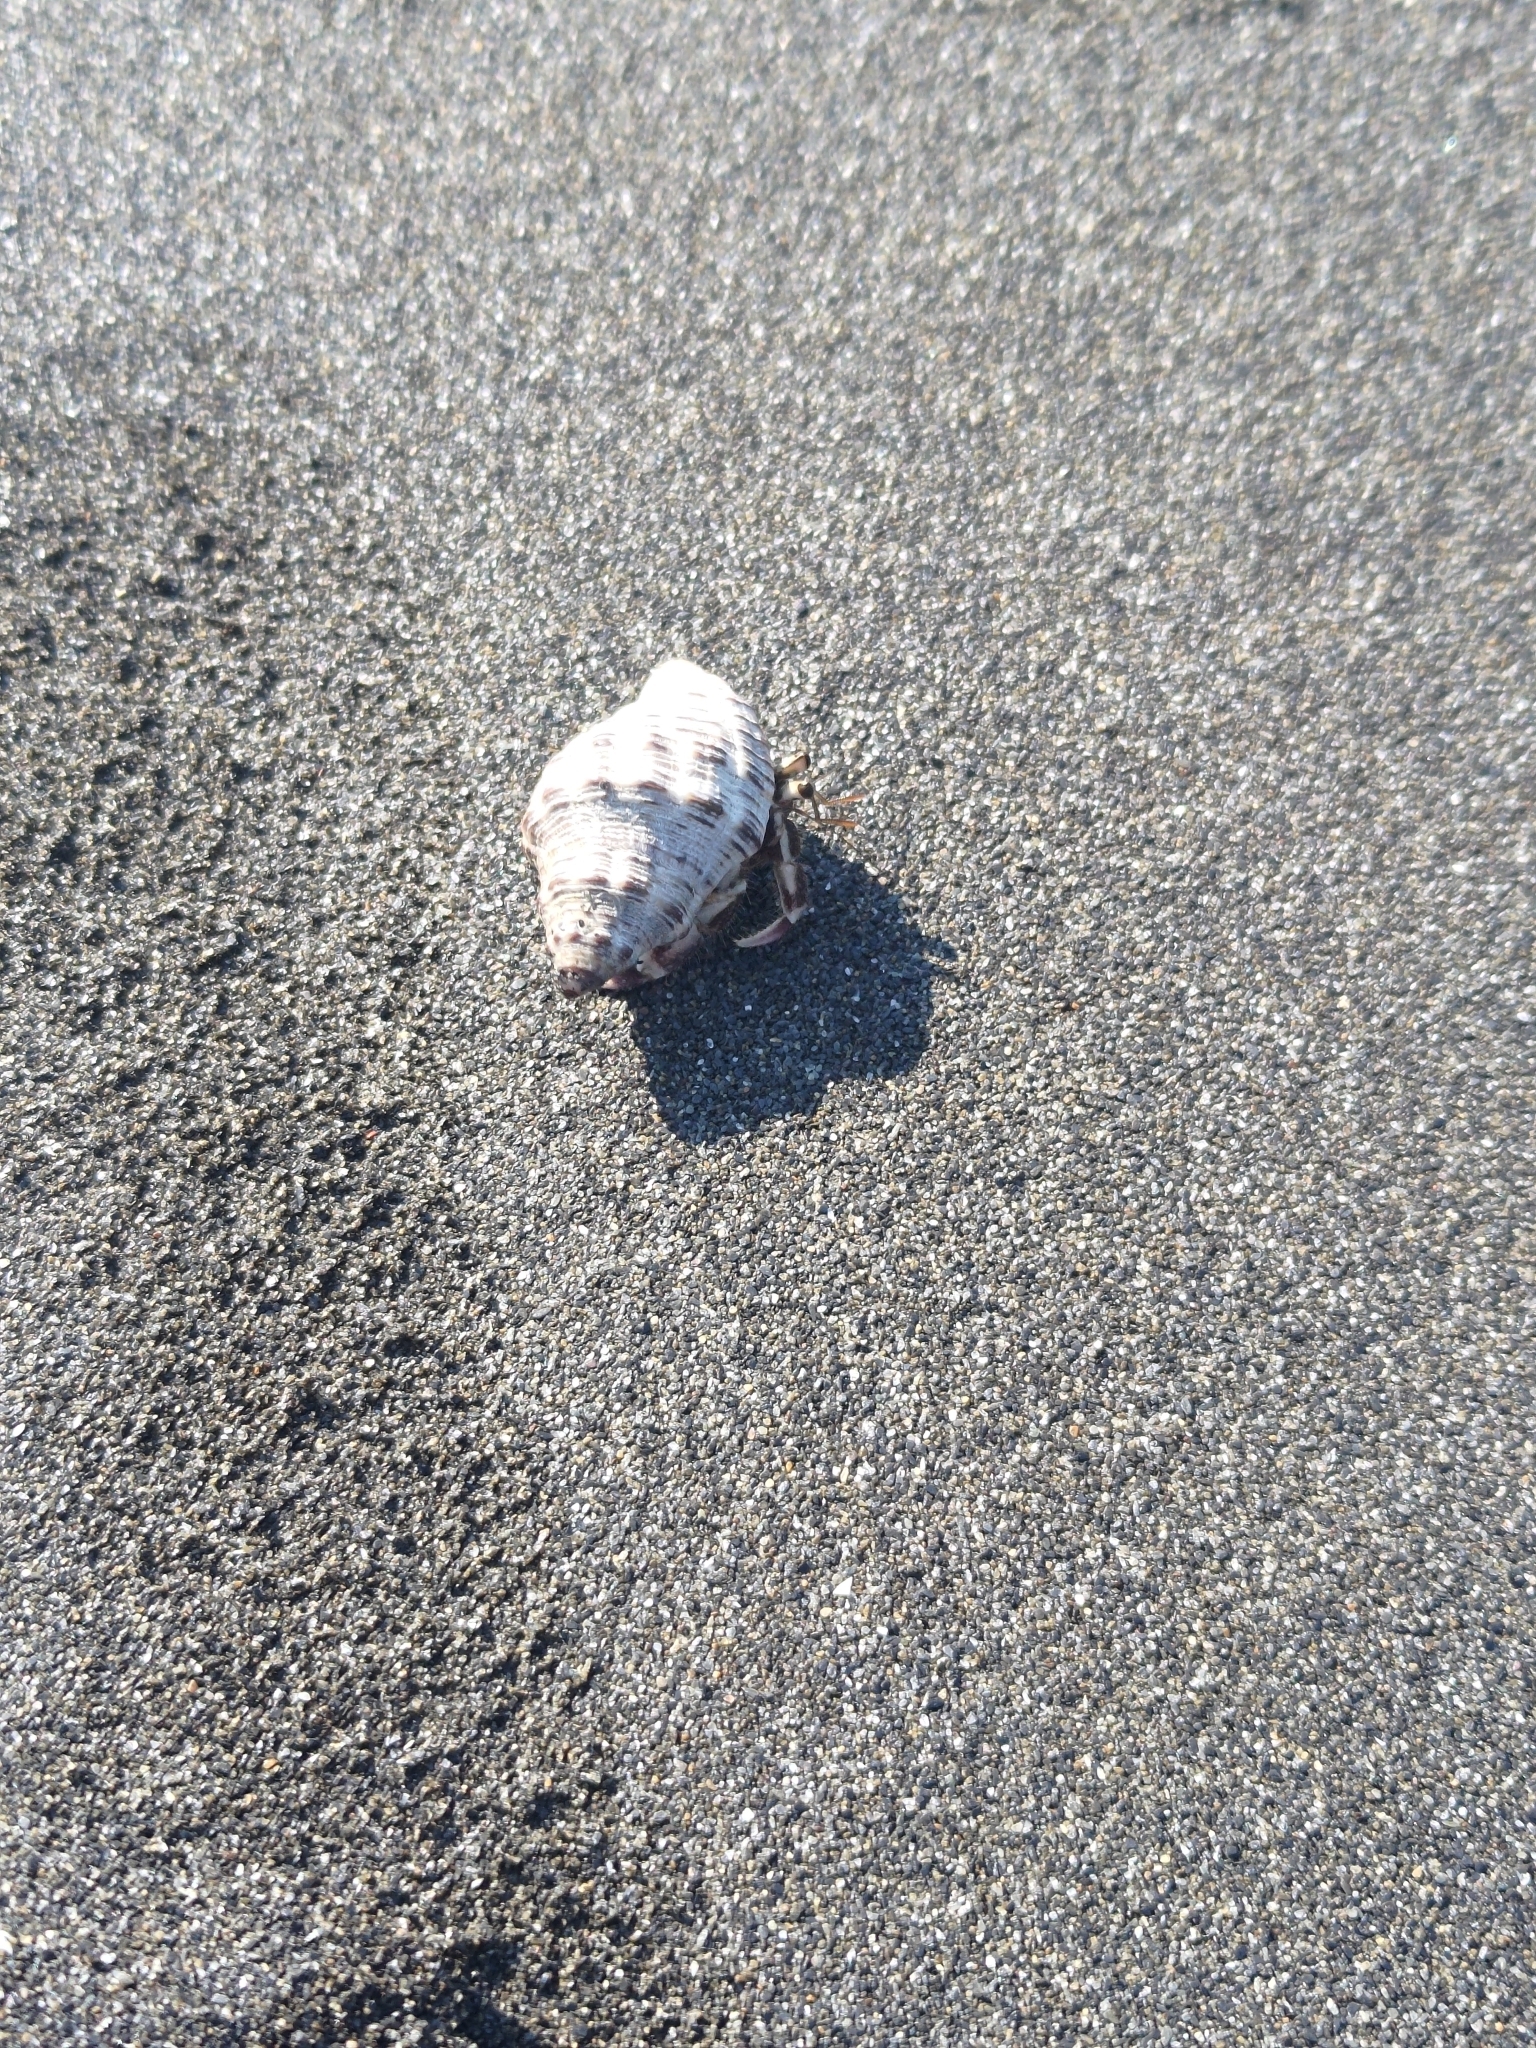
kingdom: Animalia
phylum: Arthropoda
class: Malacostraca
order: Decapoda
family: Coenobitidae
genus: Coenobita
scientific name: Coenobita rugosus
